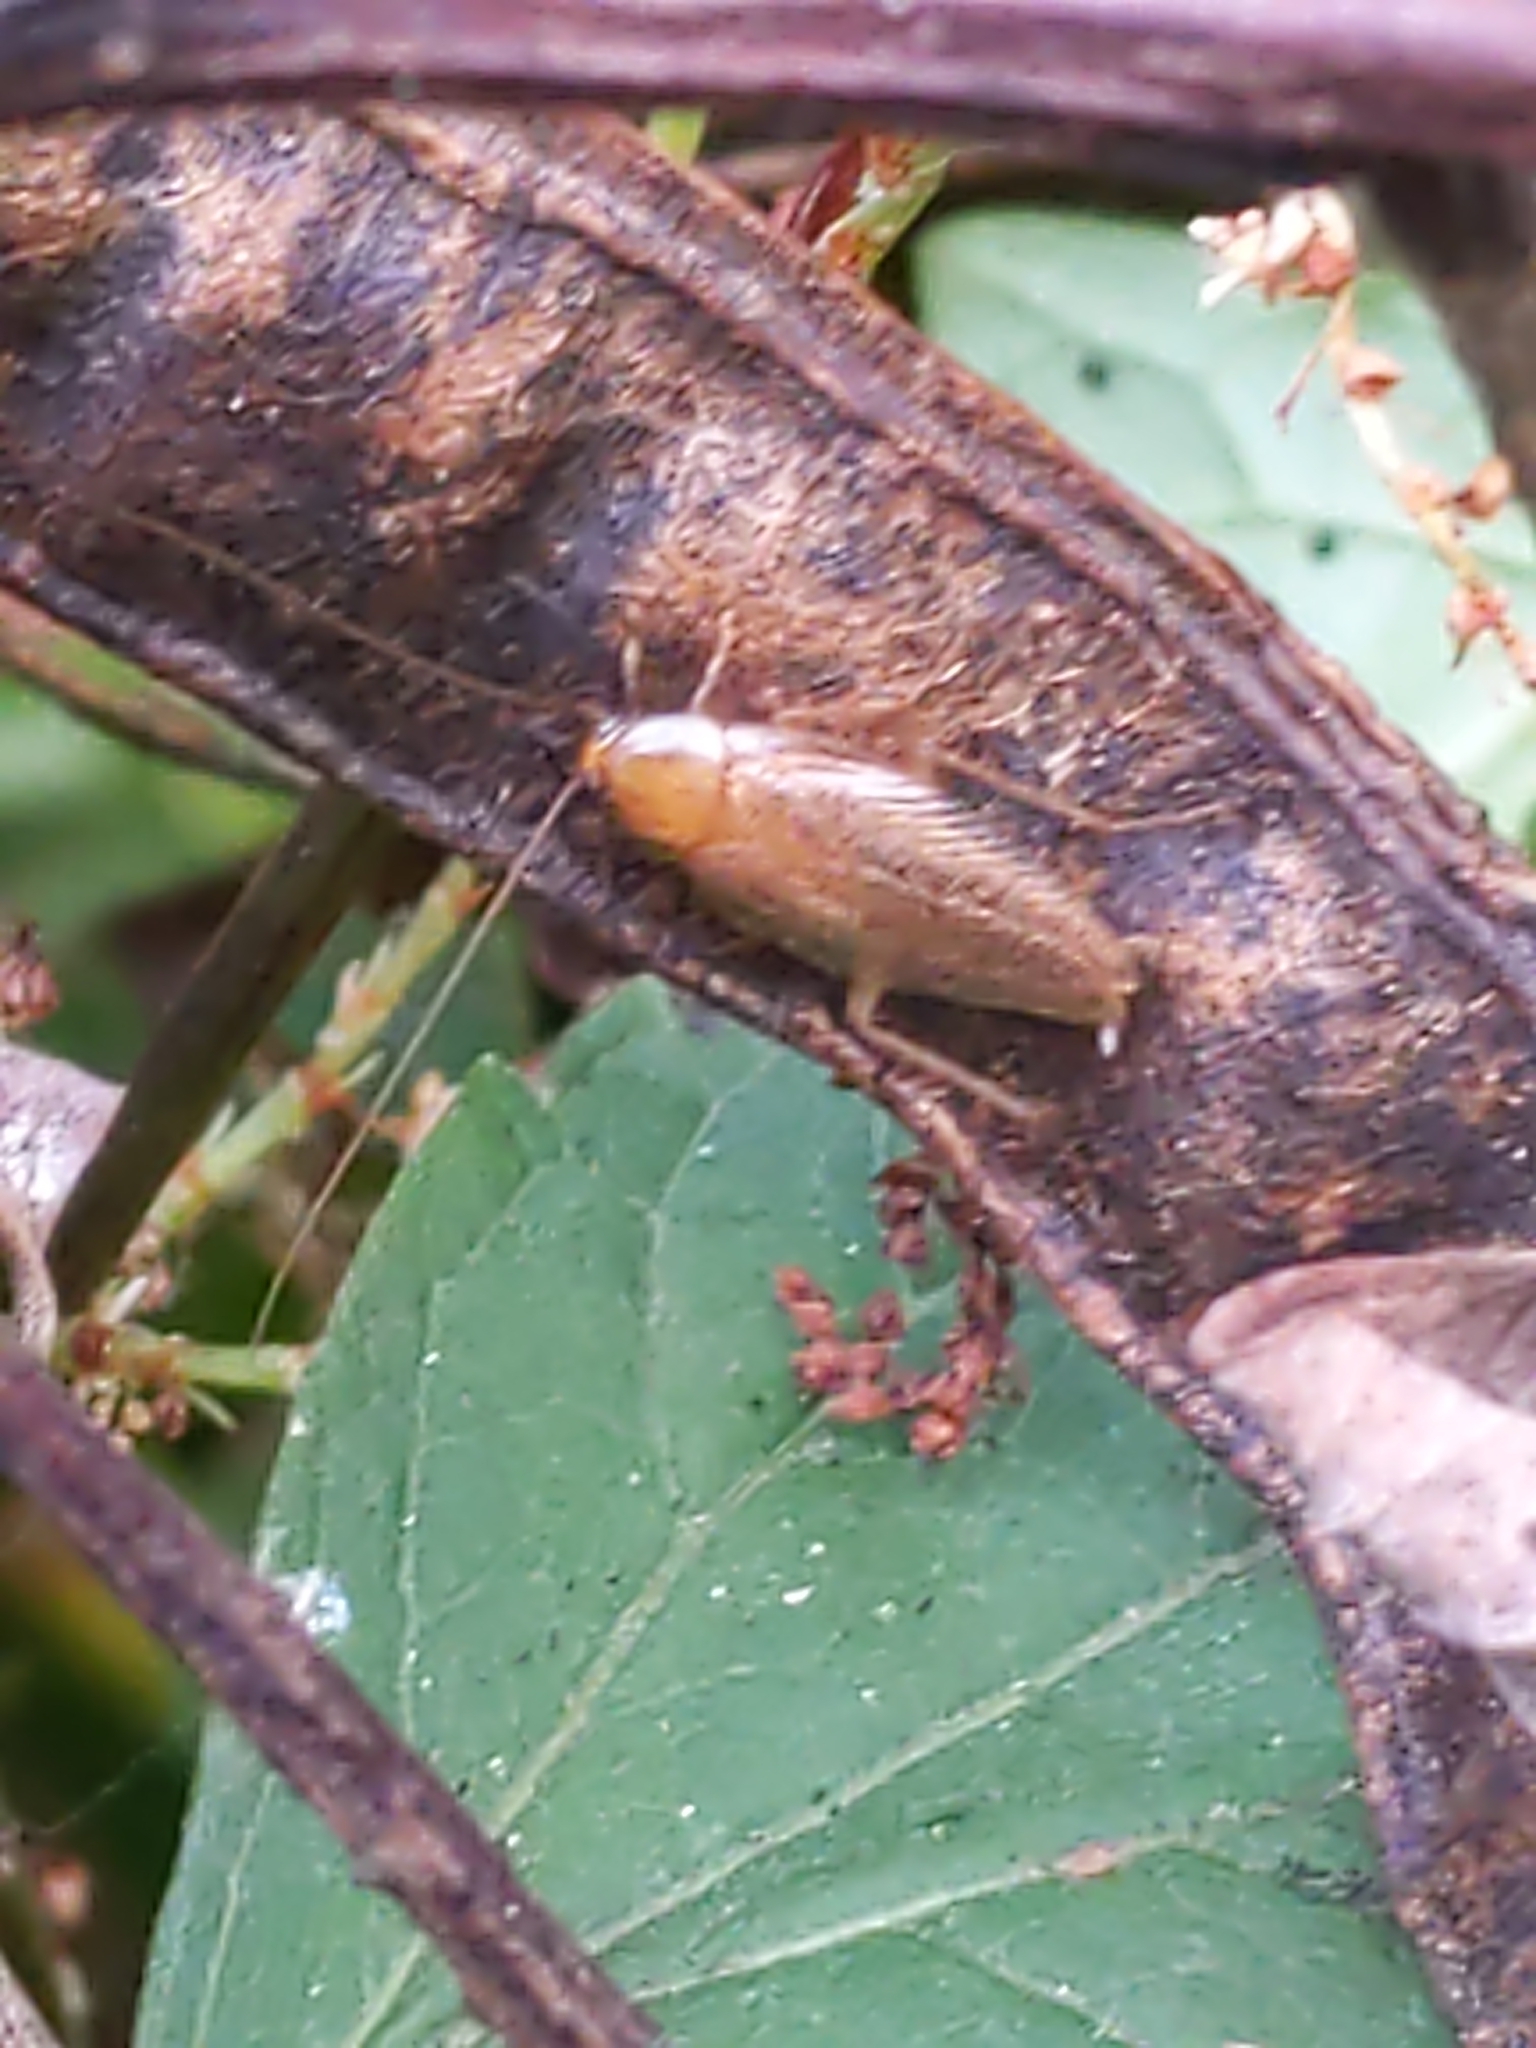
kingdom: Animalia
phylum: Arthropoda
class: Insecta
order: Blattodea
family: Ectobiidae
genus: Ectobius
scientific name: Ectobius pallidus
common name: Tawny cockroach
